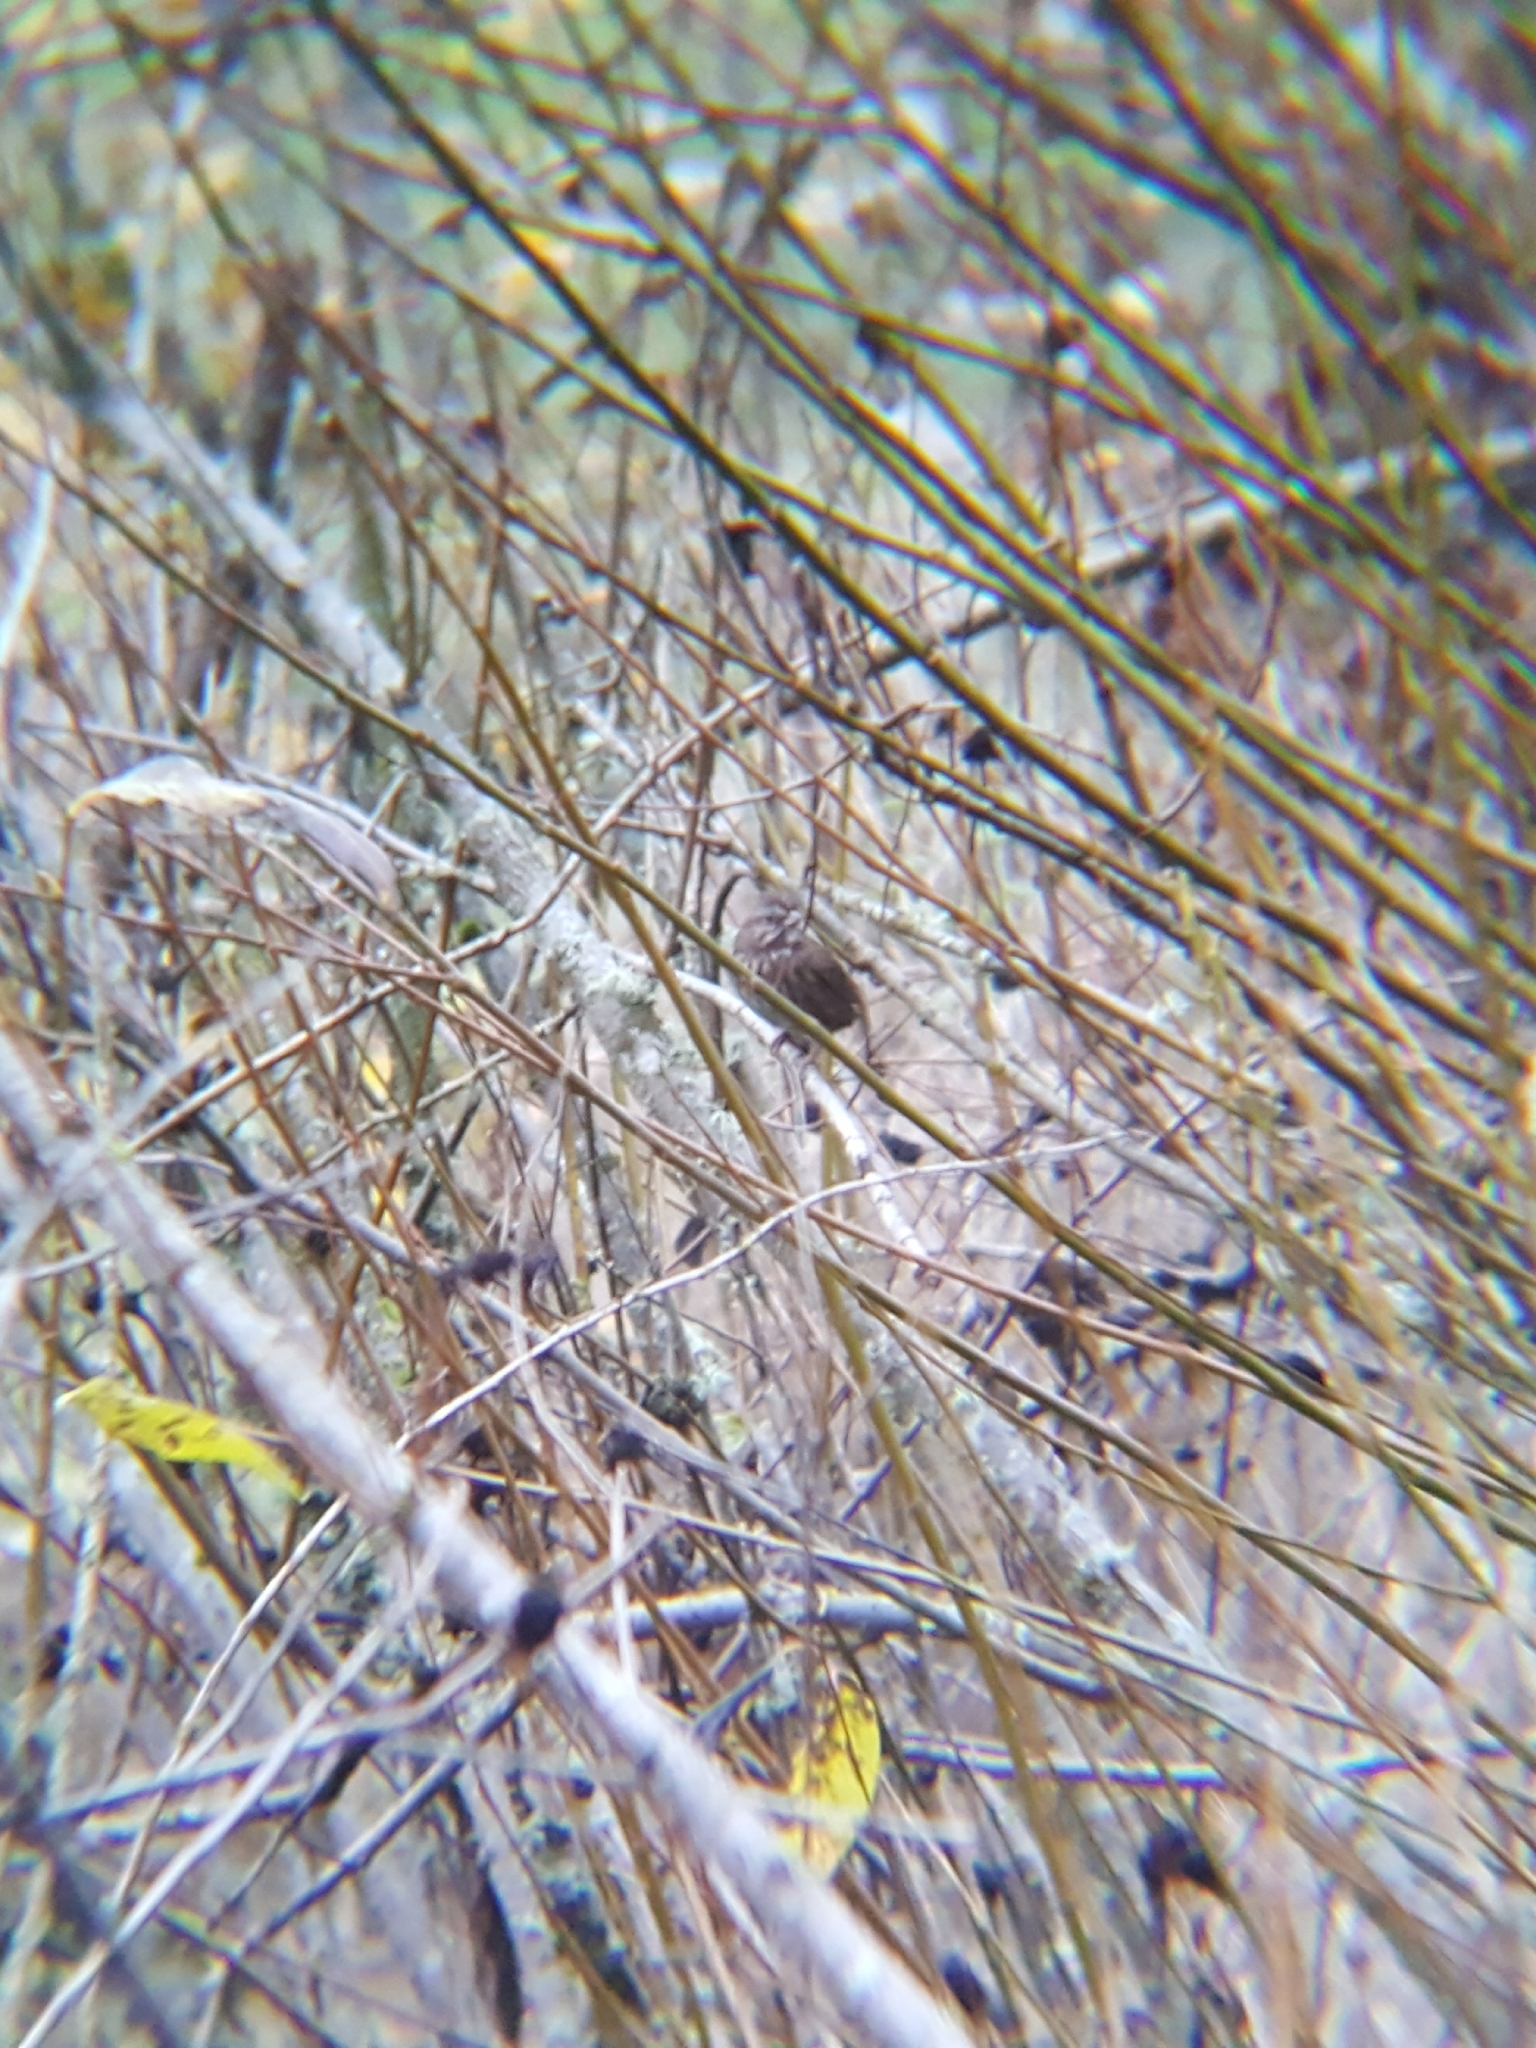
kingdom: Animalia
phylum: Chordata
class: Aves
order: Passeriformes
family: Passerellidae
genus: Melospiza
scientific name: Melospiza melodia
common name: Song sparrow
